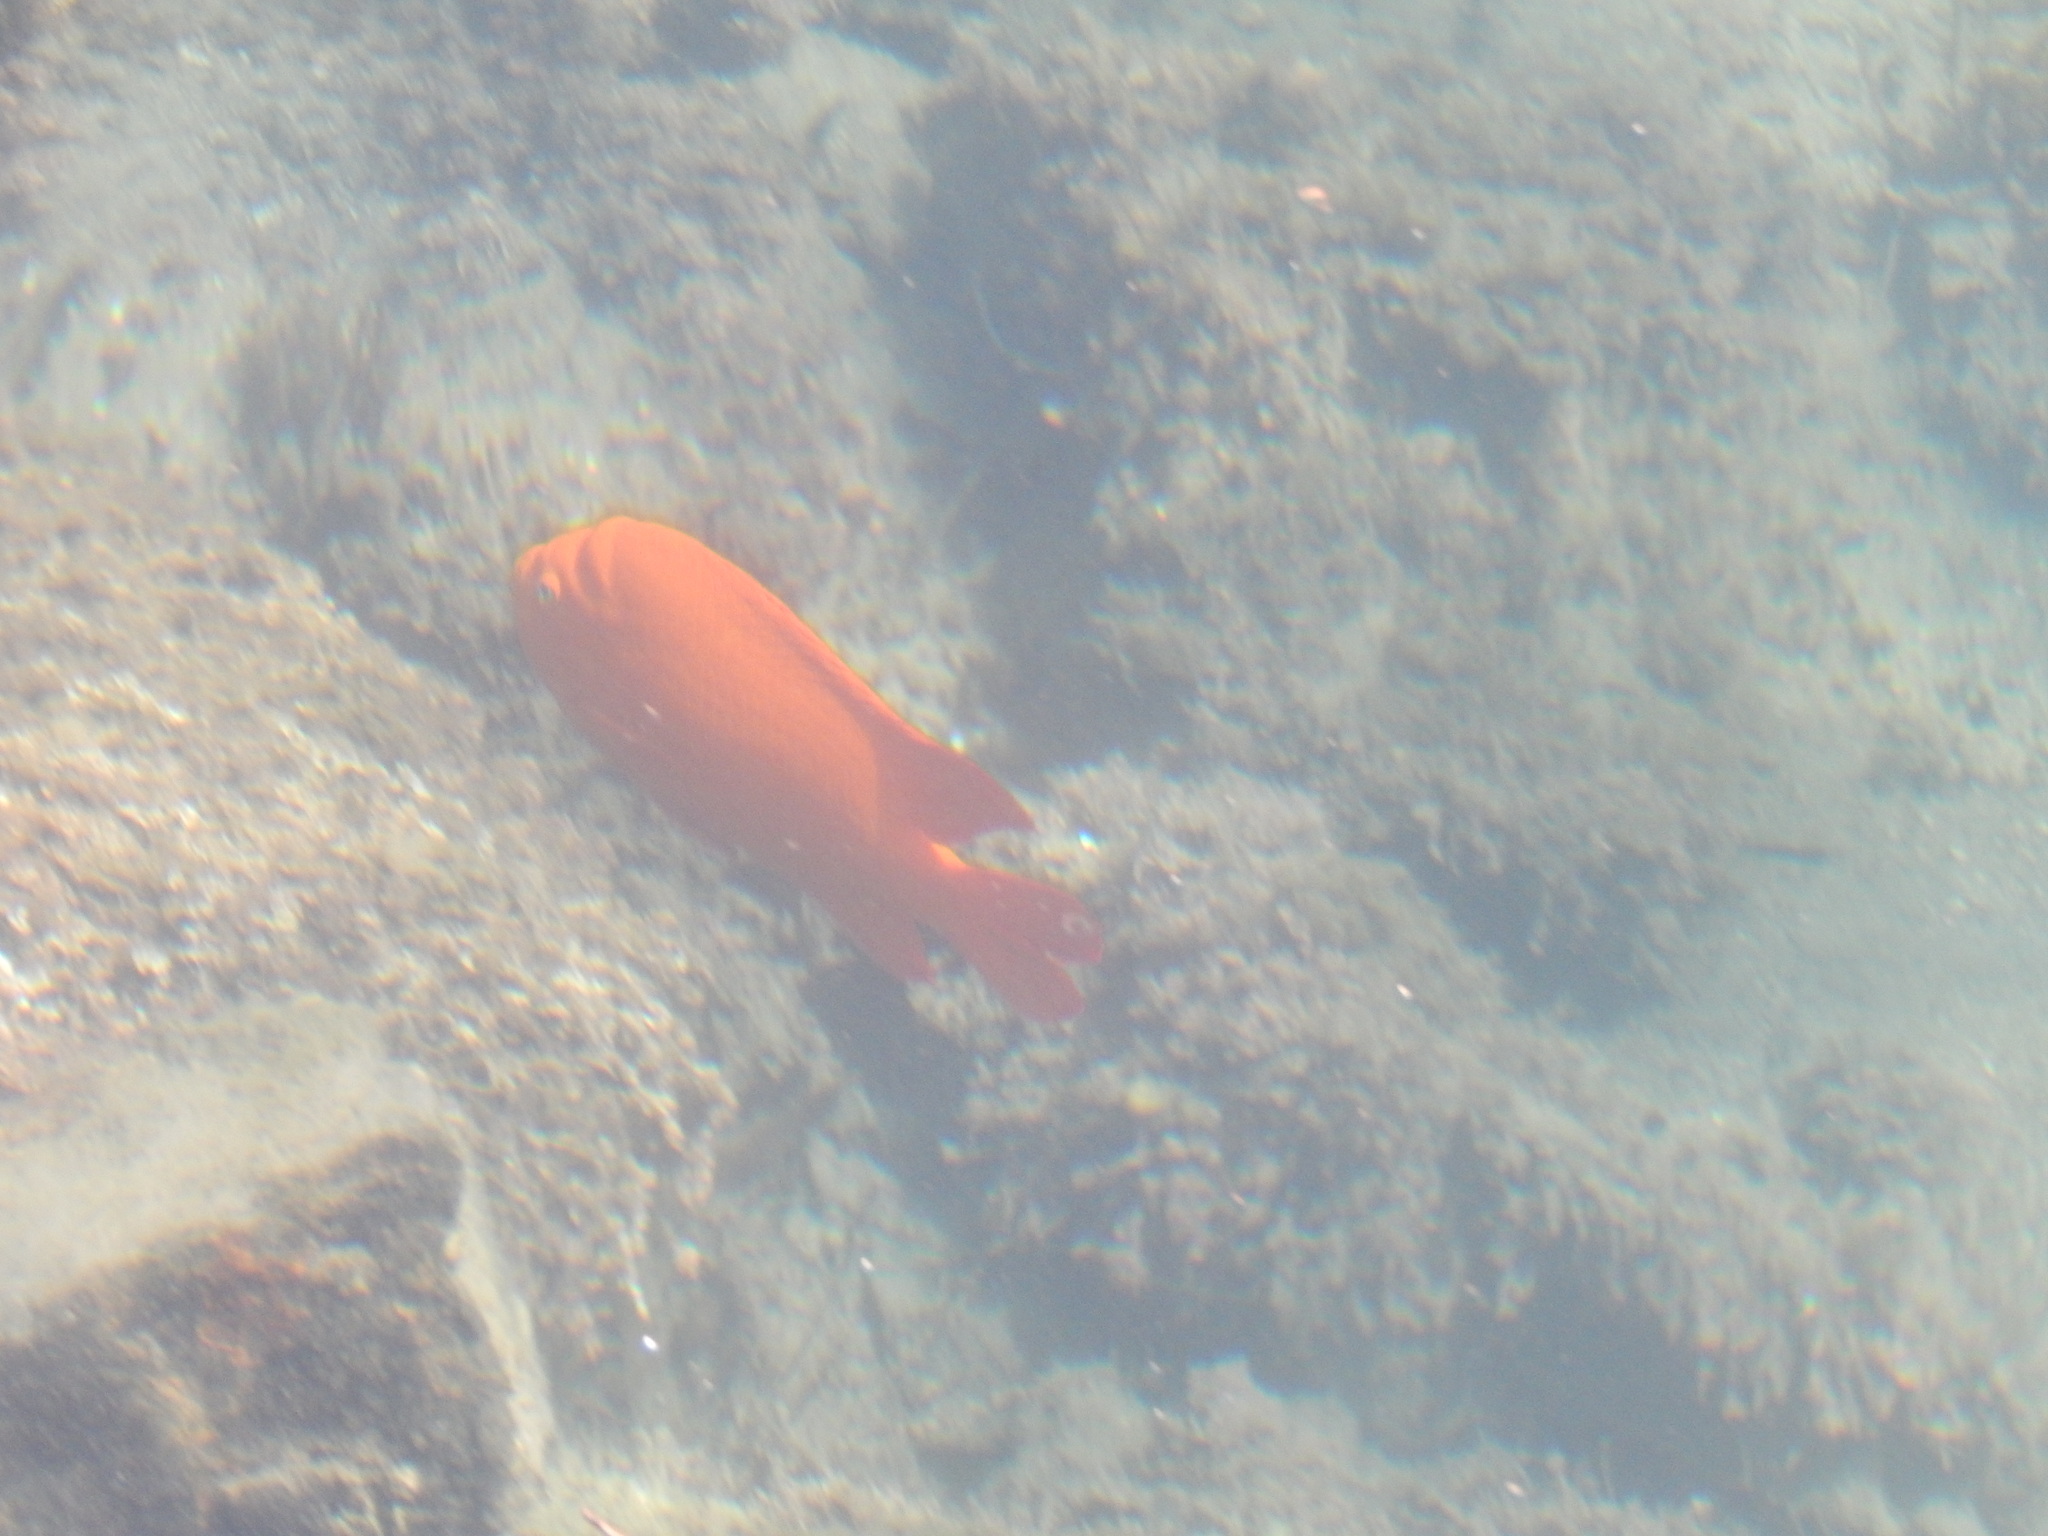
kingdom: Animalia
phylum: Chordata
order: Perciformes
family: Pomacentridae
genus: Hypsypops
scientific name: Hypsypops rubicundus
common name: Garibaldi
